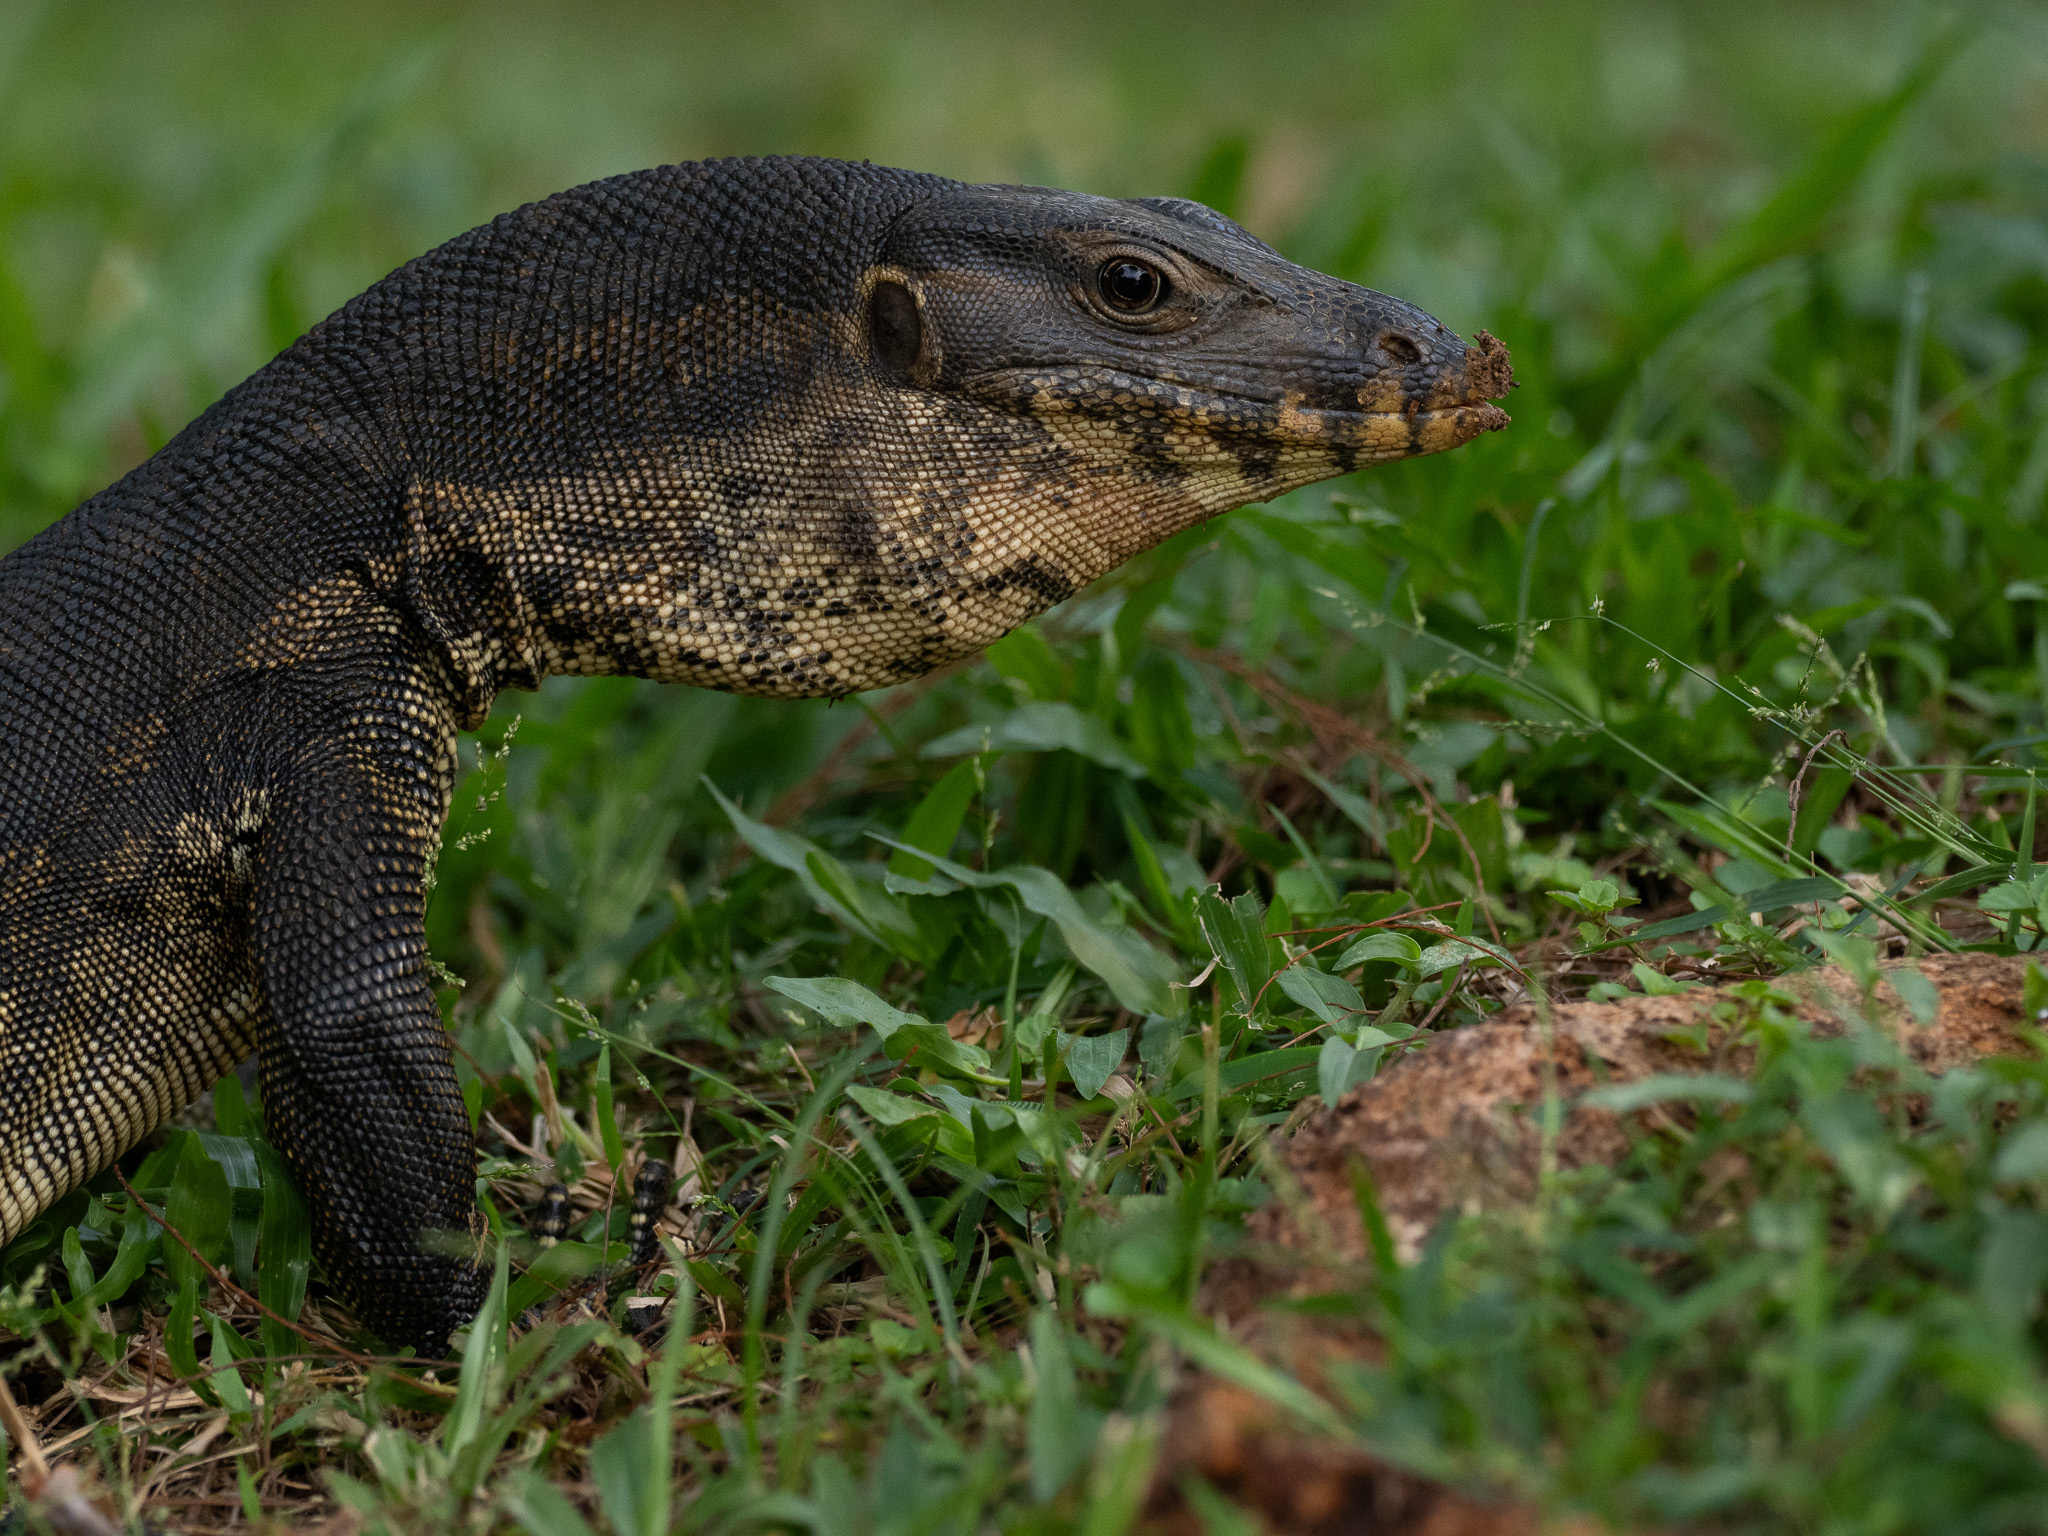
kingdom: Animalia
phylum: Chordata
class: Squamata
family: Varanidae
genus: Varanus
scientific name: Varanus salvator
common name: Common water monitor
